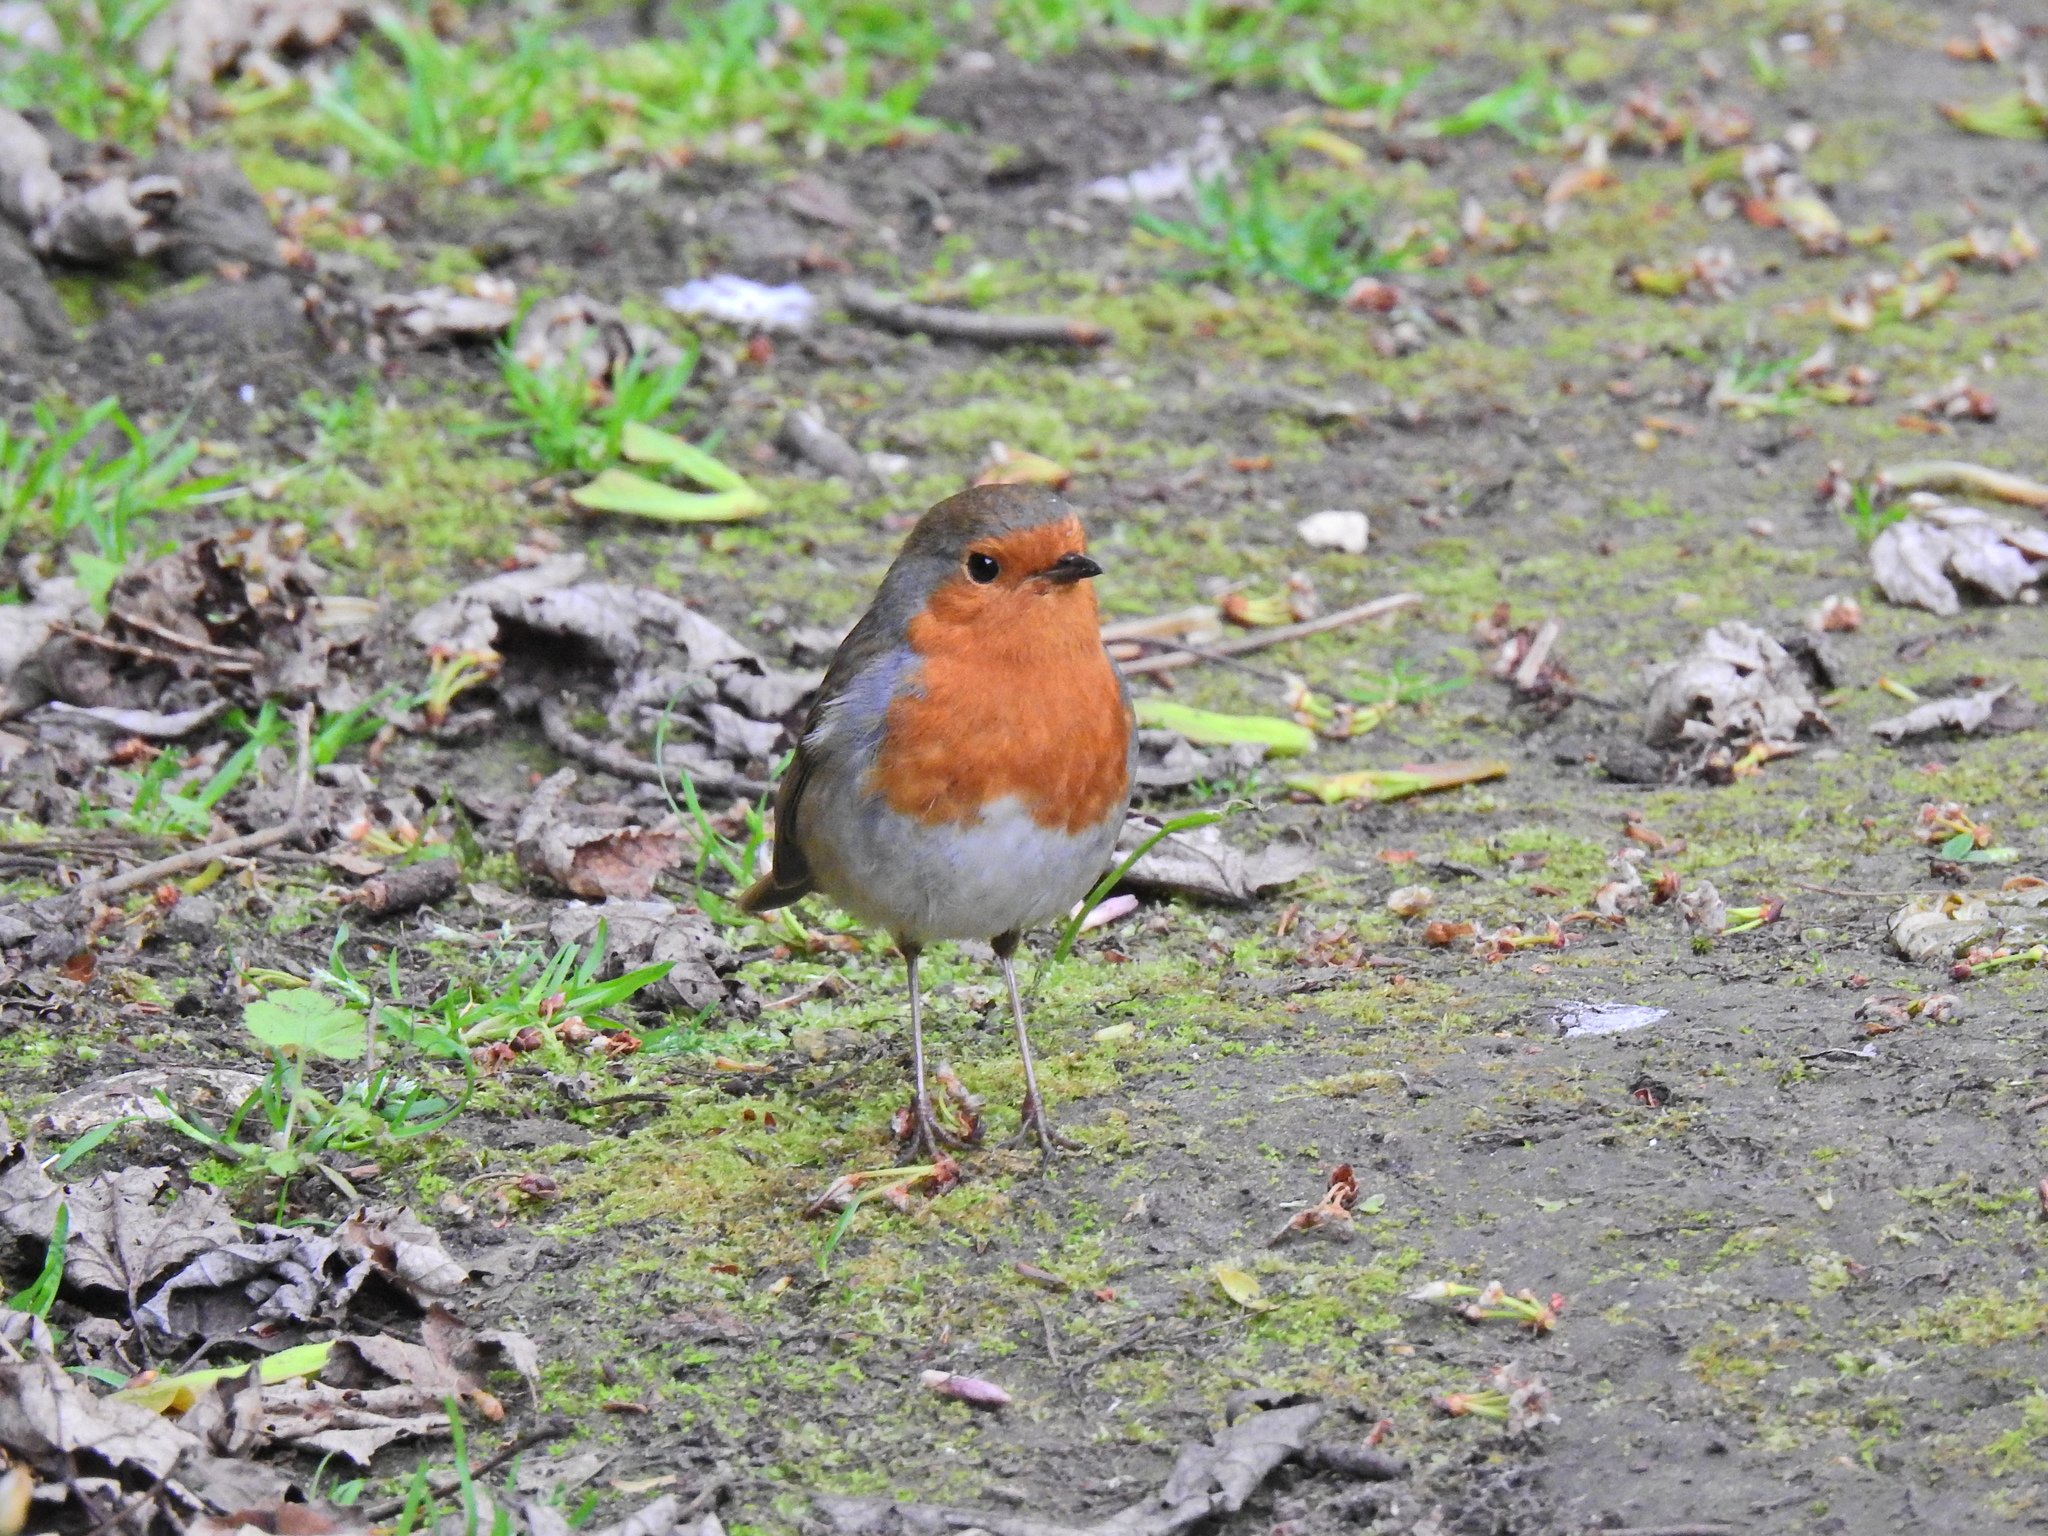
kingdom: Animalia
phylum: Chordata
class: Aves
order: Passeriformes
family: Muscicapidae
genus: Erithacus
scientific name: Erithacus rubecula
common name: European robin
